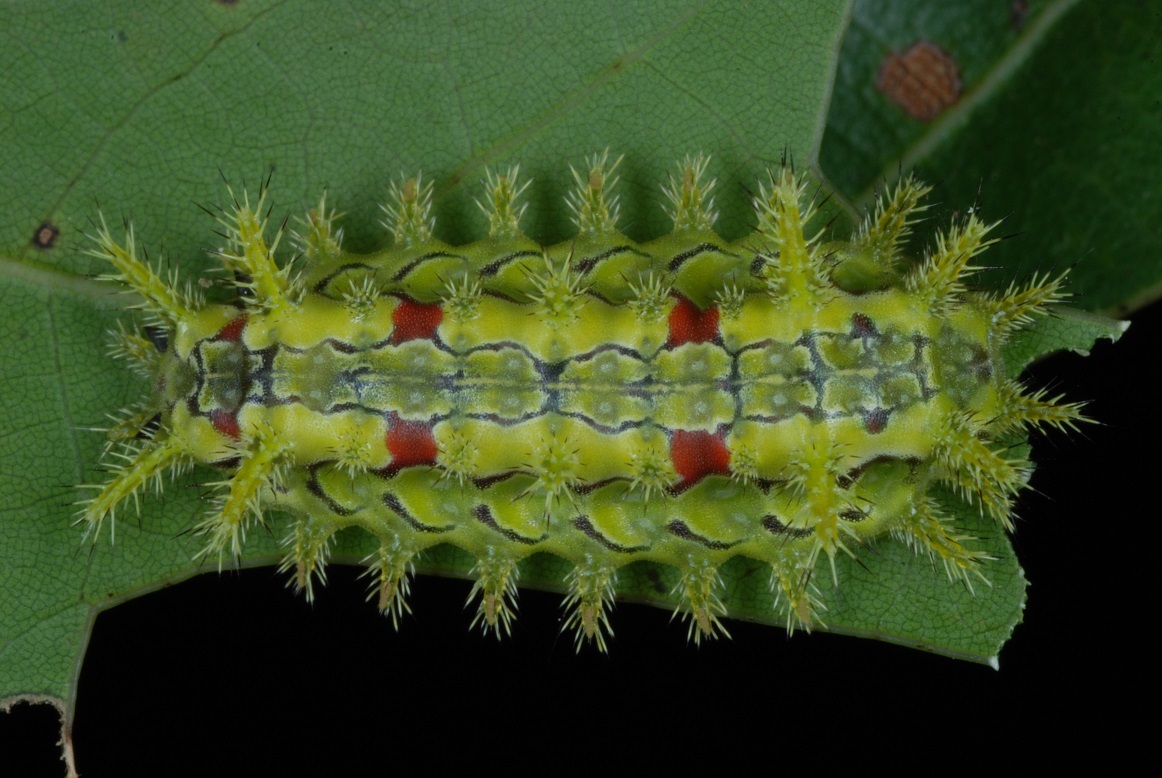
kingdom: Animalia
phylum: Arthropoda
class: Insecta
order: Lepidoptera
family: Limacodidae
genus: Euclea
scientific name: Euclea delphinii
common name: Spiny oak-slug moth
